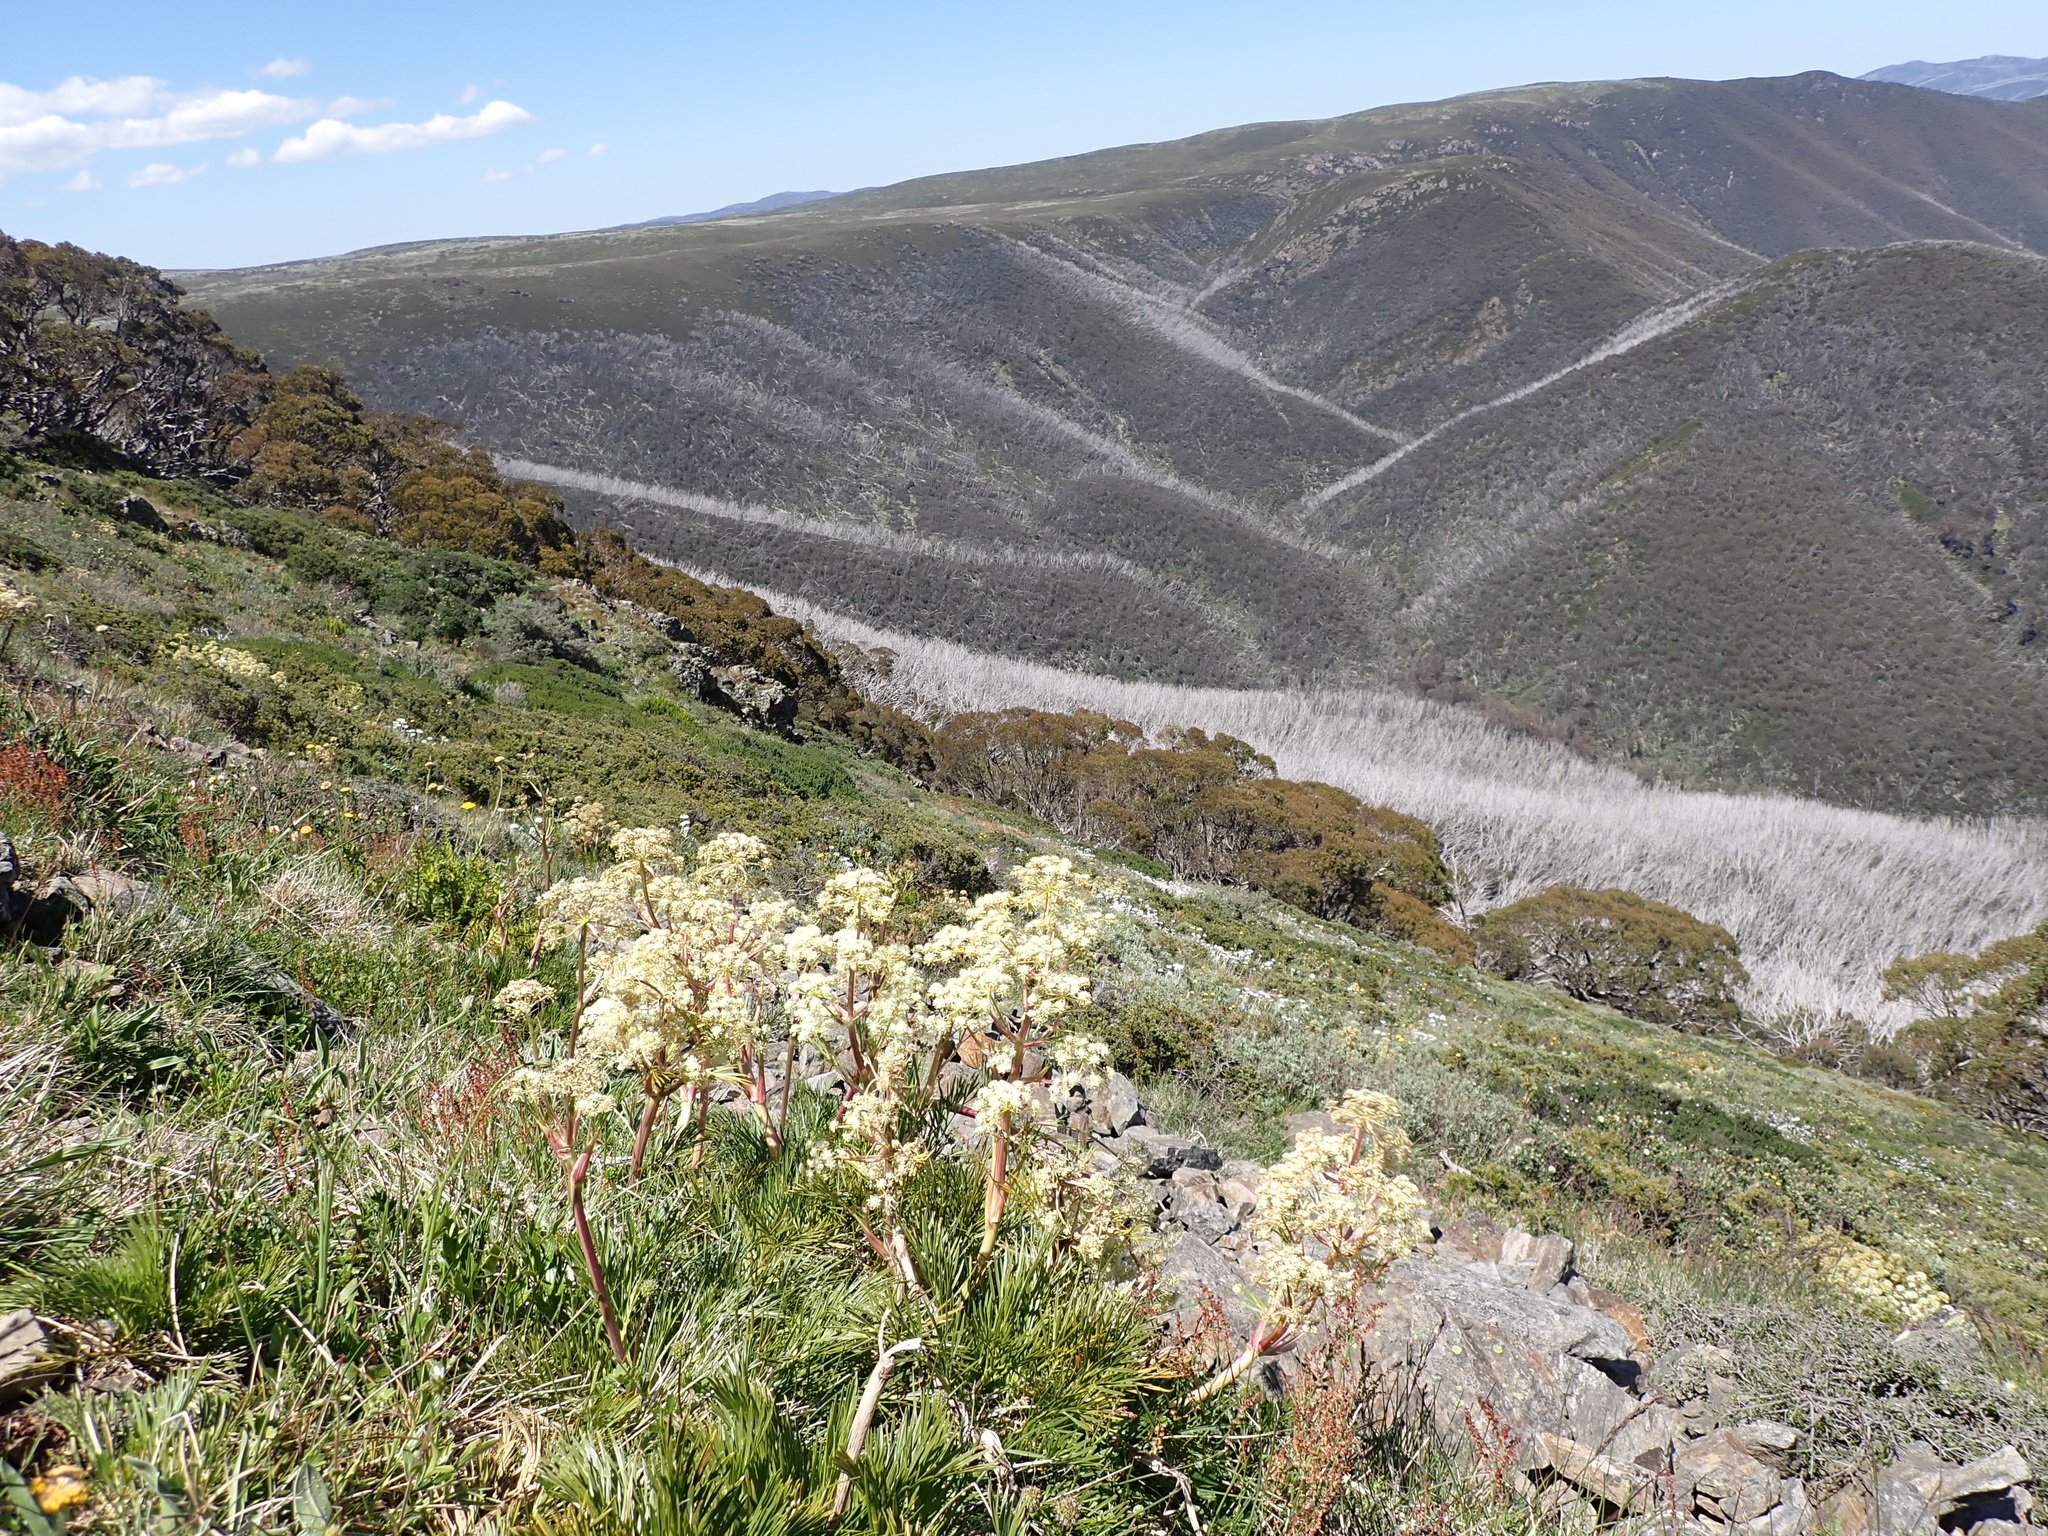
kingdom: Plantae
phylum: Tracheophyta
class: Magnoliopsida
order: Apiales
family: Apiaceae
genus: Aciphylla
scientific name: Aciphylla glacialis
